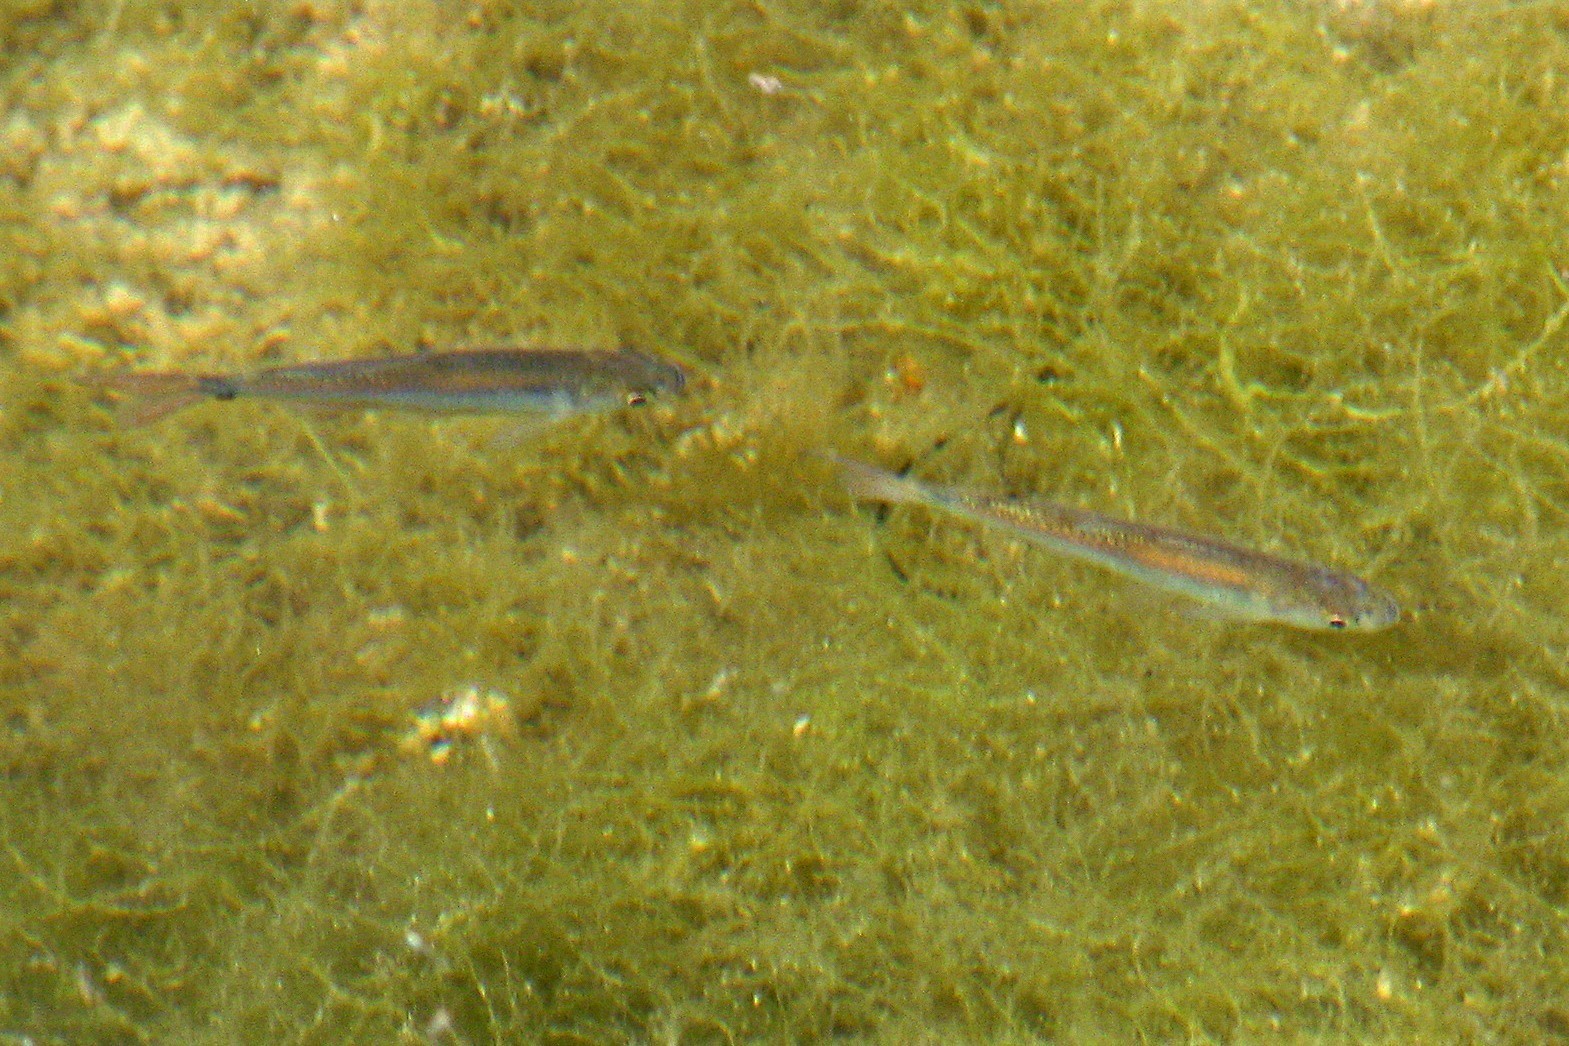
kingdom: Animalia
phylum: Chordata
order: Characiformes
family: Characidae
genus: Astyanax
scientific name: Astyanax eigenmanniorum
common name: Tetra
